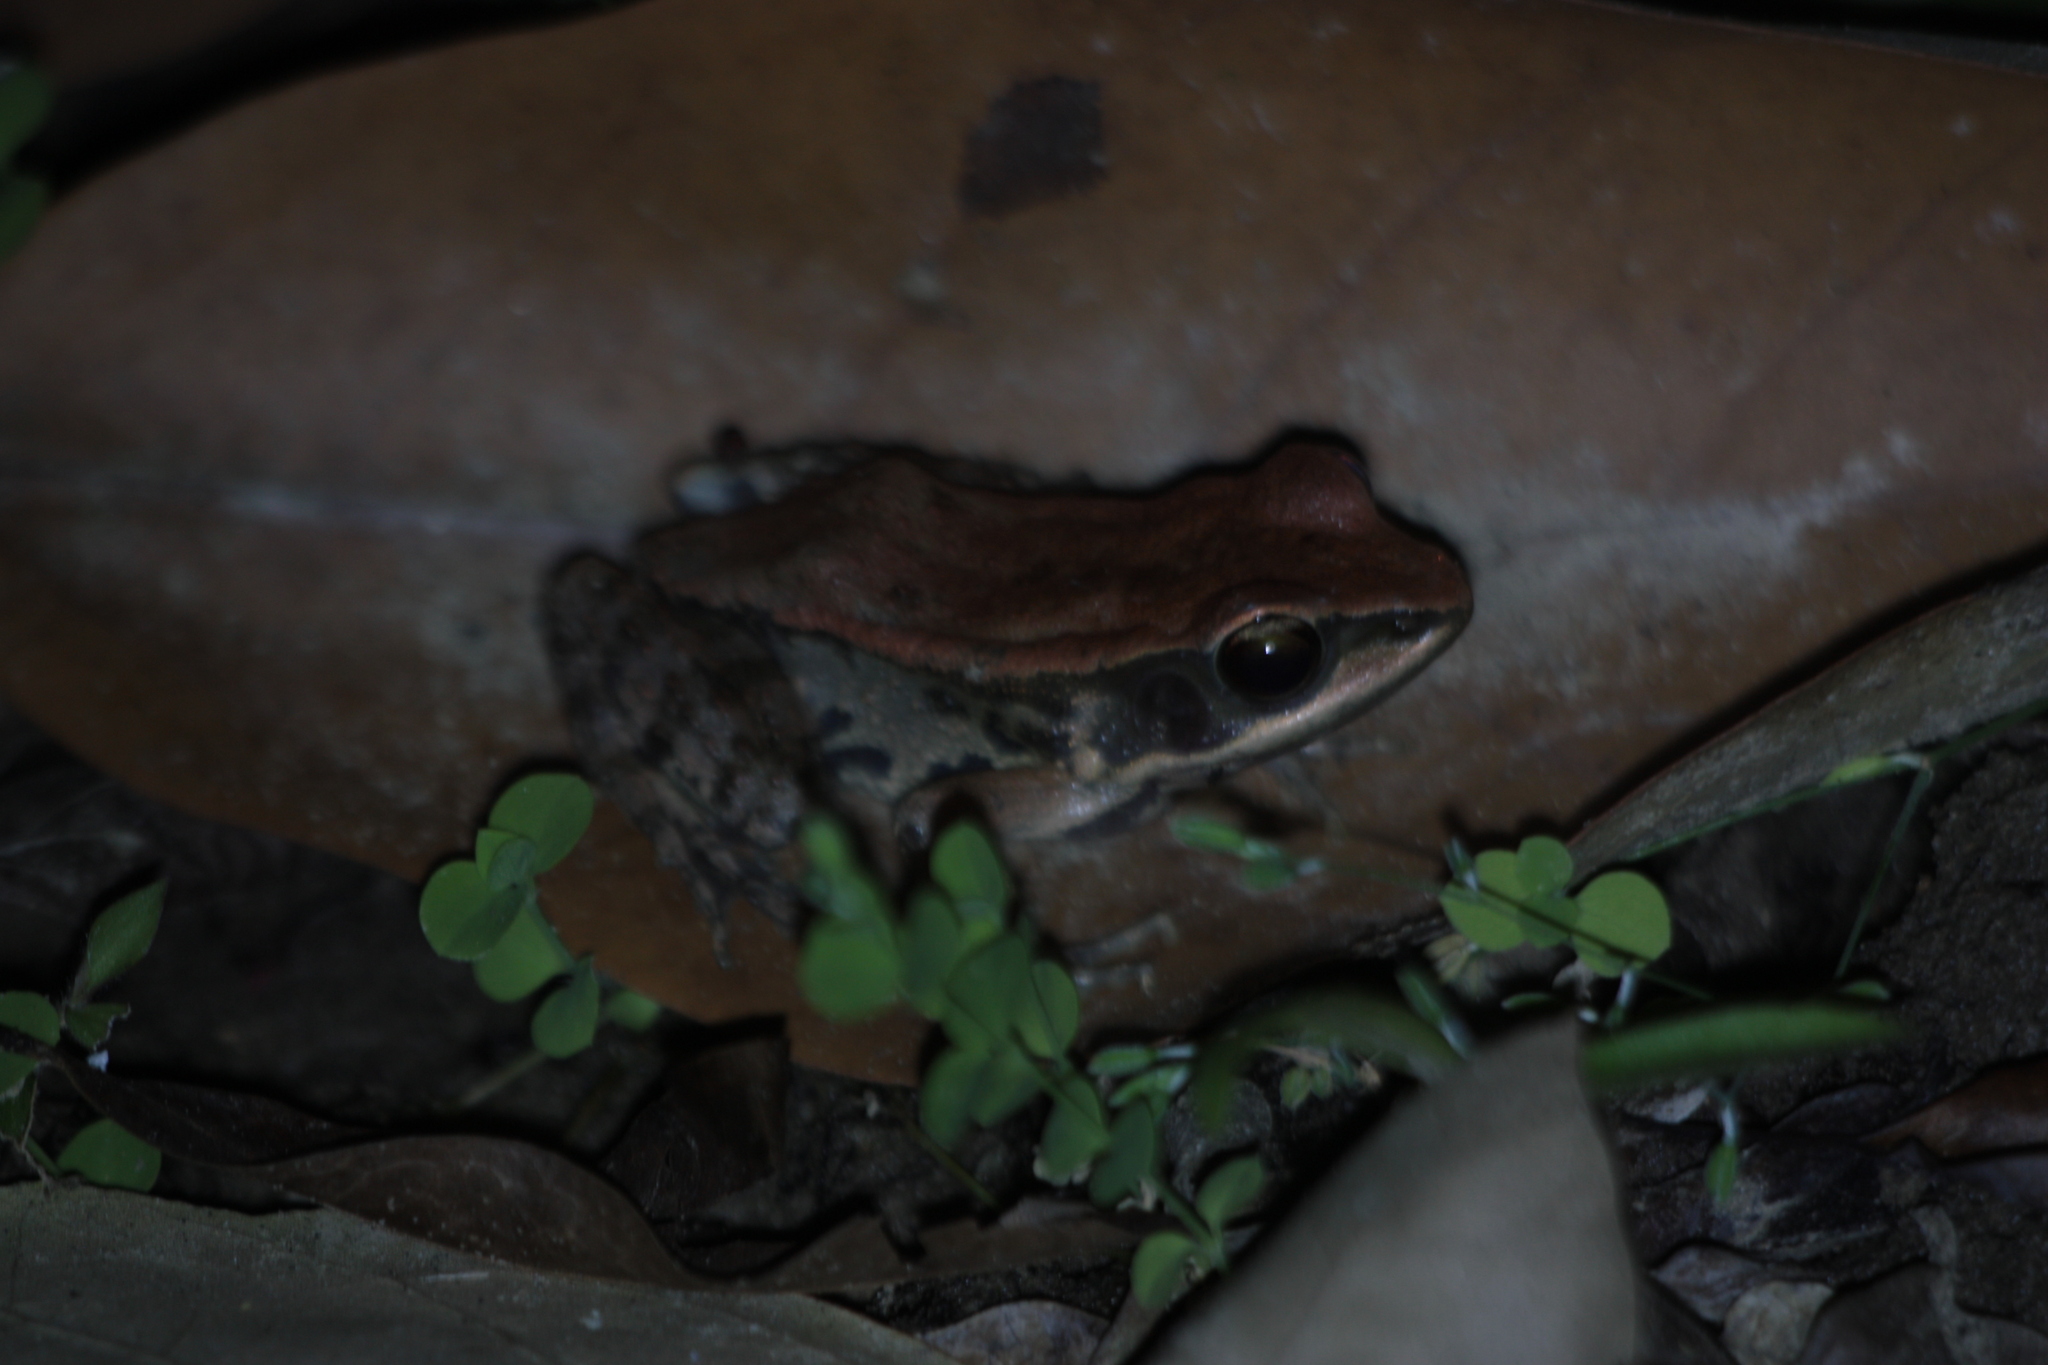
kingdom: Animalia
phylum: Chordata
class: Amphibia
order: Anura
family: Ranidae
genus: Hylarana
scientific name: Hylarana latouchii
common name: Broad-folded frog
